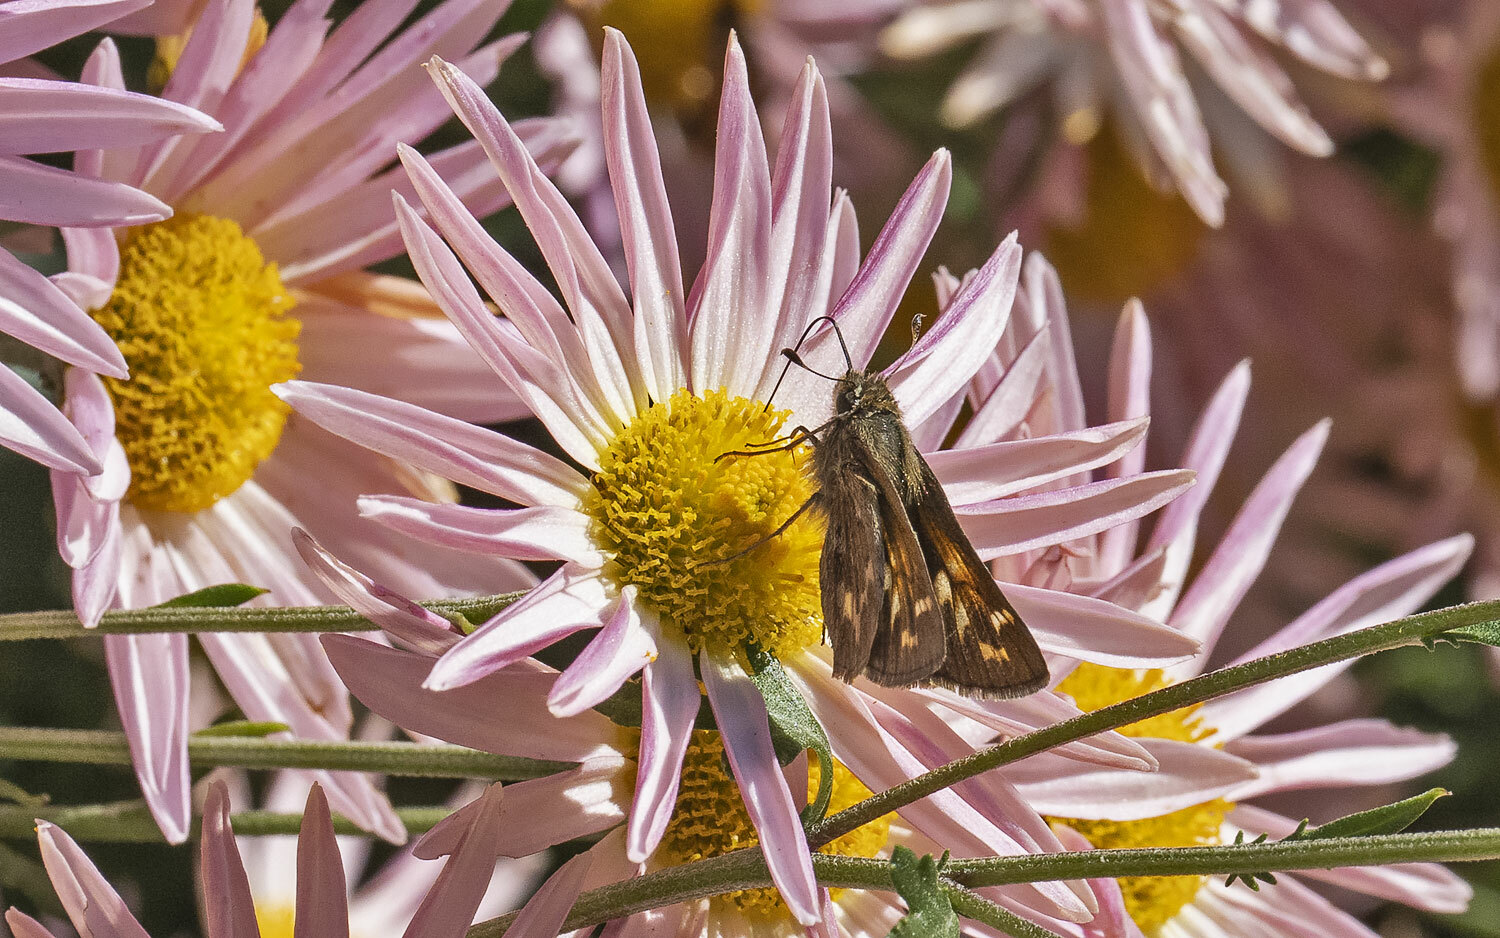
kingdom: Animalia
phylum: Arthropoda
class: Insecta
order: Lepidoptera
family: Hesperiidae
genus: Atalopedes
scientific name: Atalopedes
